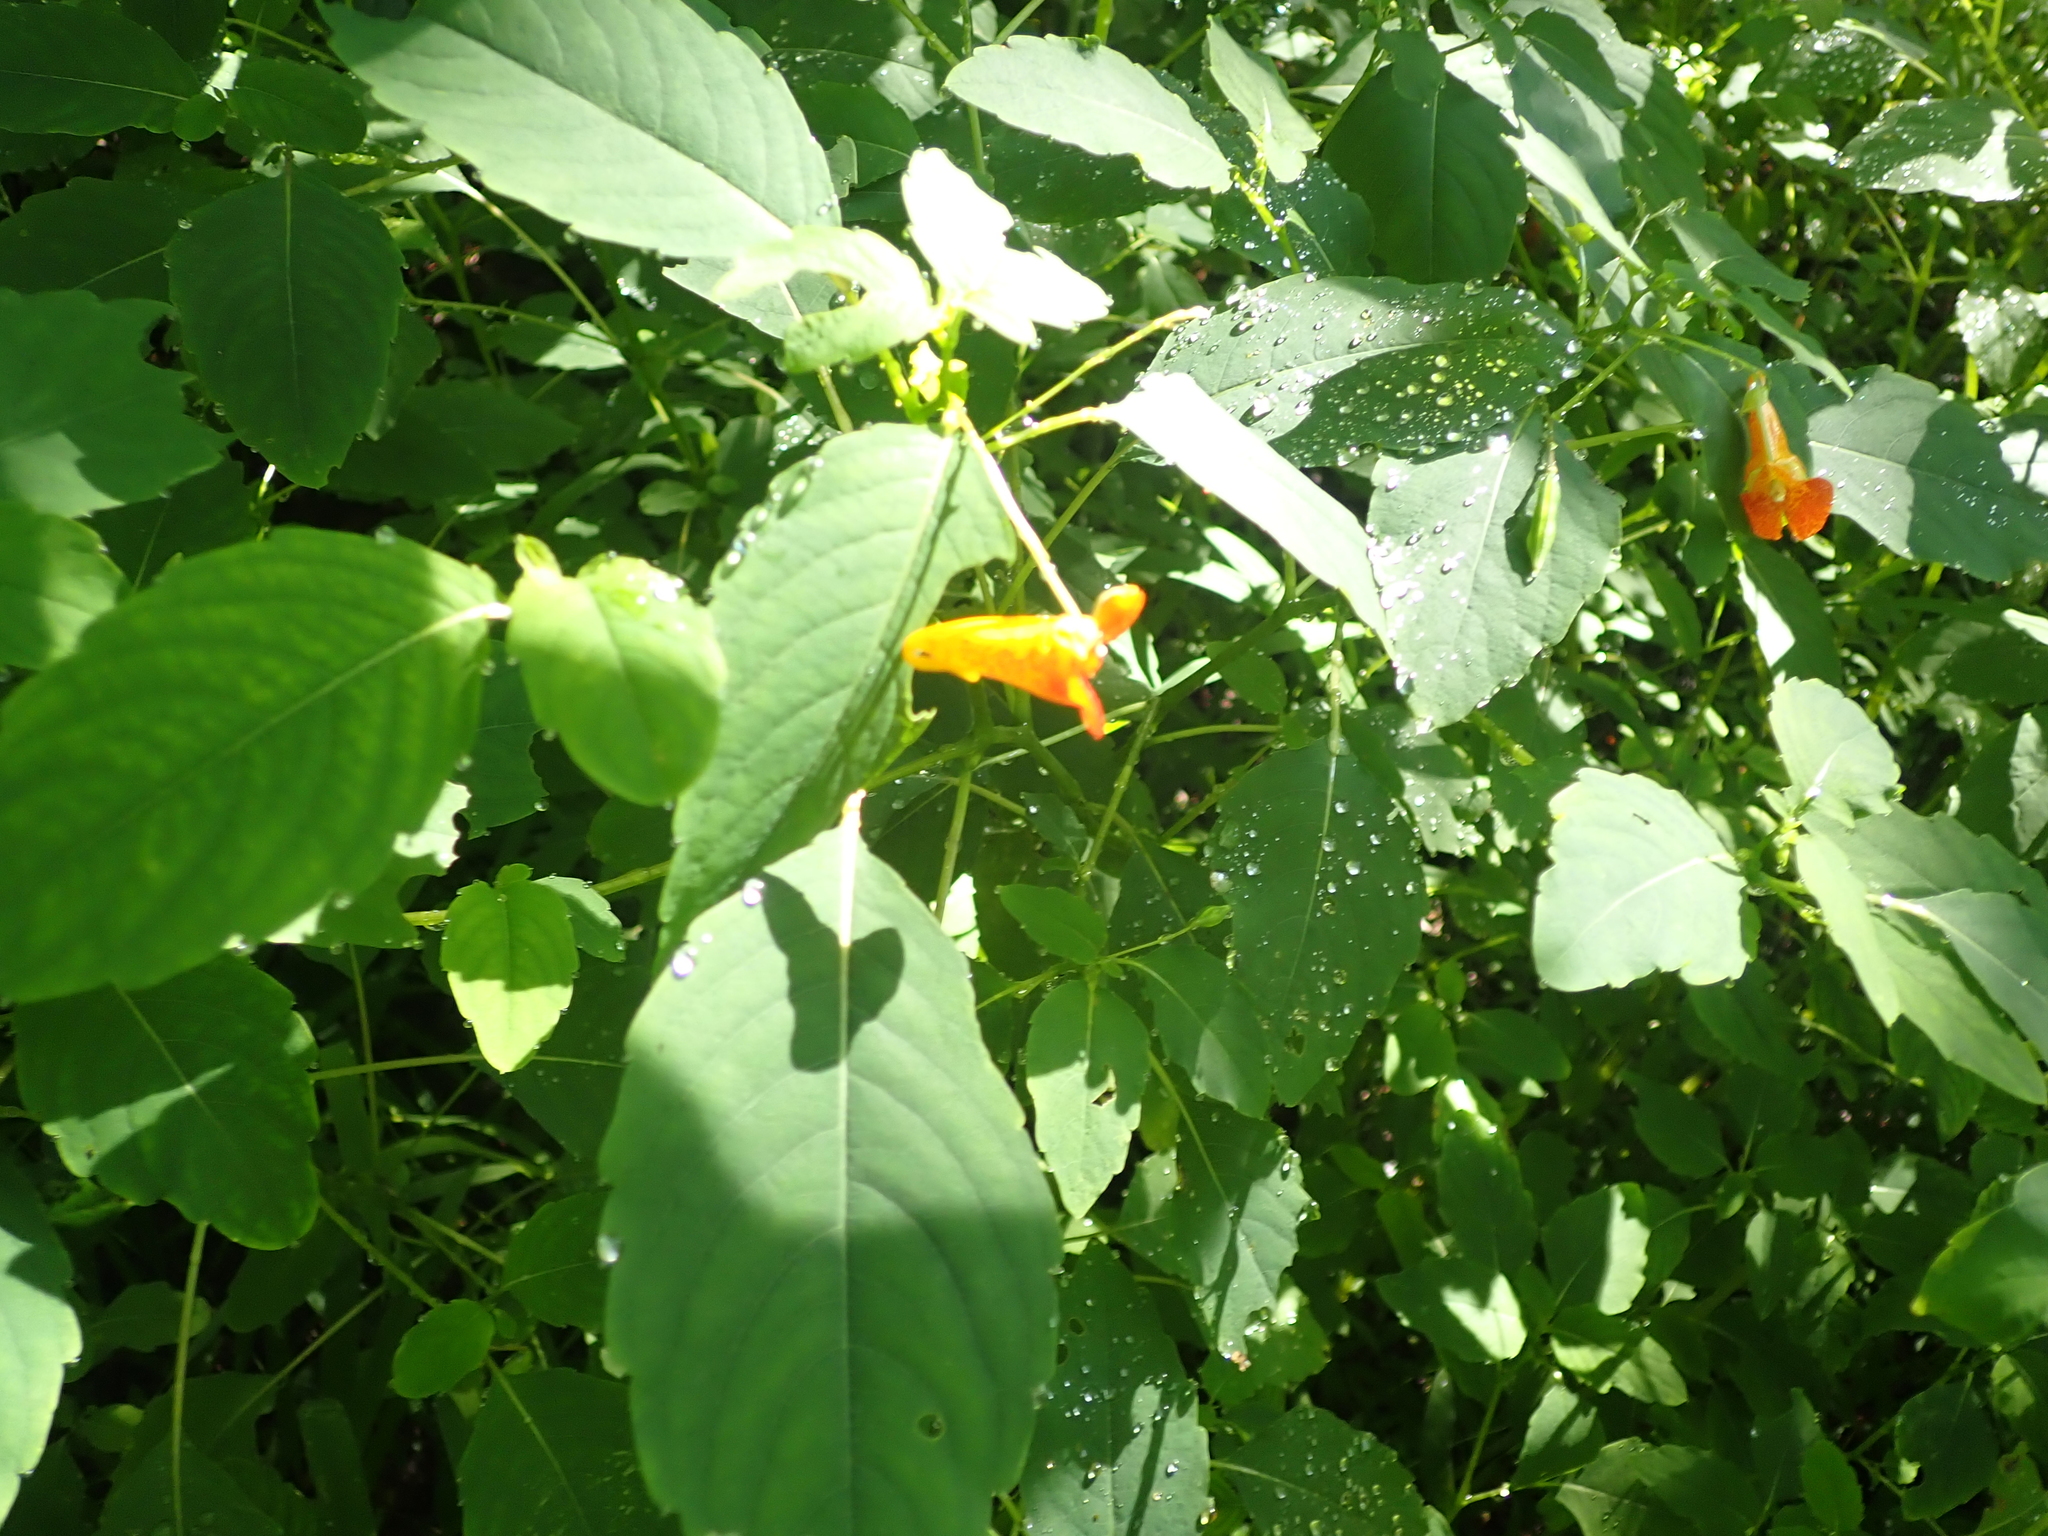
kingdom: Plantae
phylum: Tracheophyta
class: Magnoliopsida
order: Ericales
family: Balsaminaceae
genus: Impatiens
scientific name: Impatiens capensis
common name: Orange balsam
